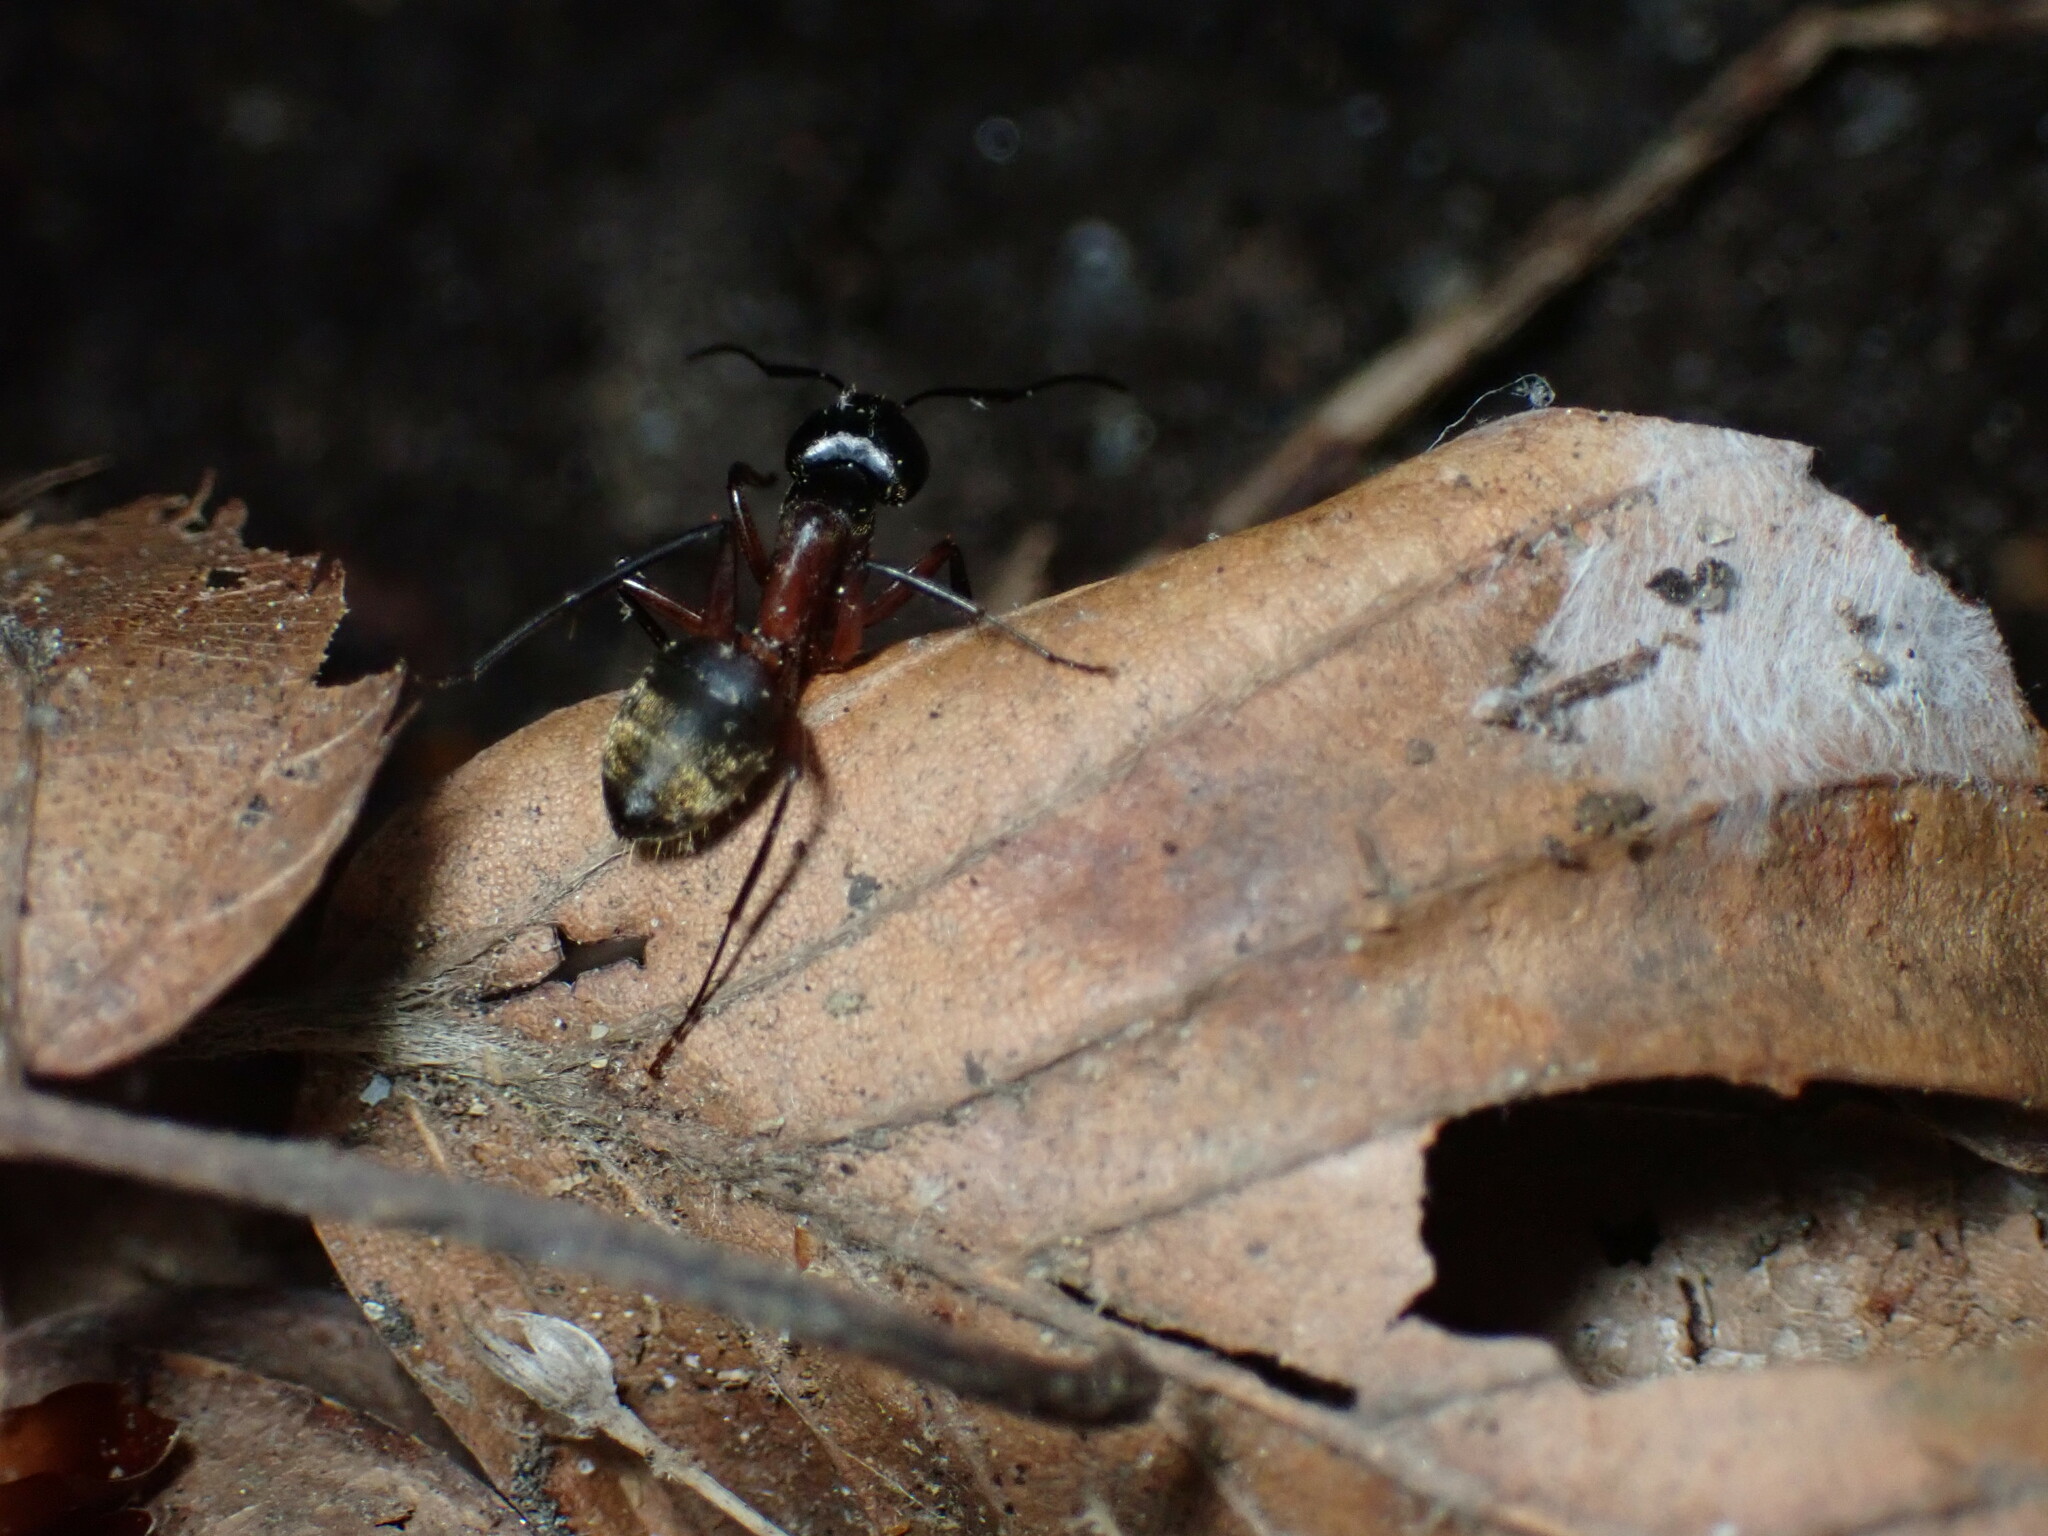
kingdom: Animalia
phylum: Arthropoda
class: Insecta
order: Hymenoptera
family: Formicidae
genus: Camponotus
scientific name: Camponotus chromaiodes
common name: Red carpenter ant
